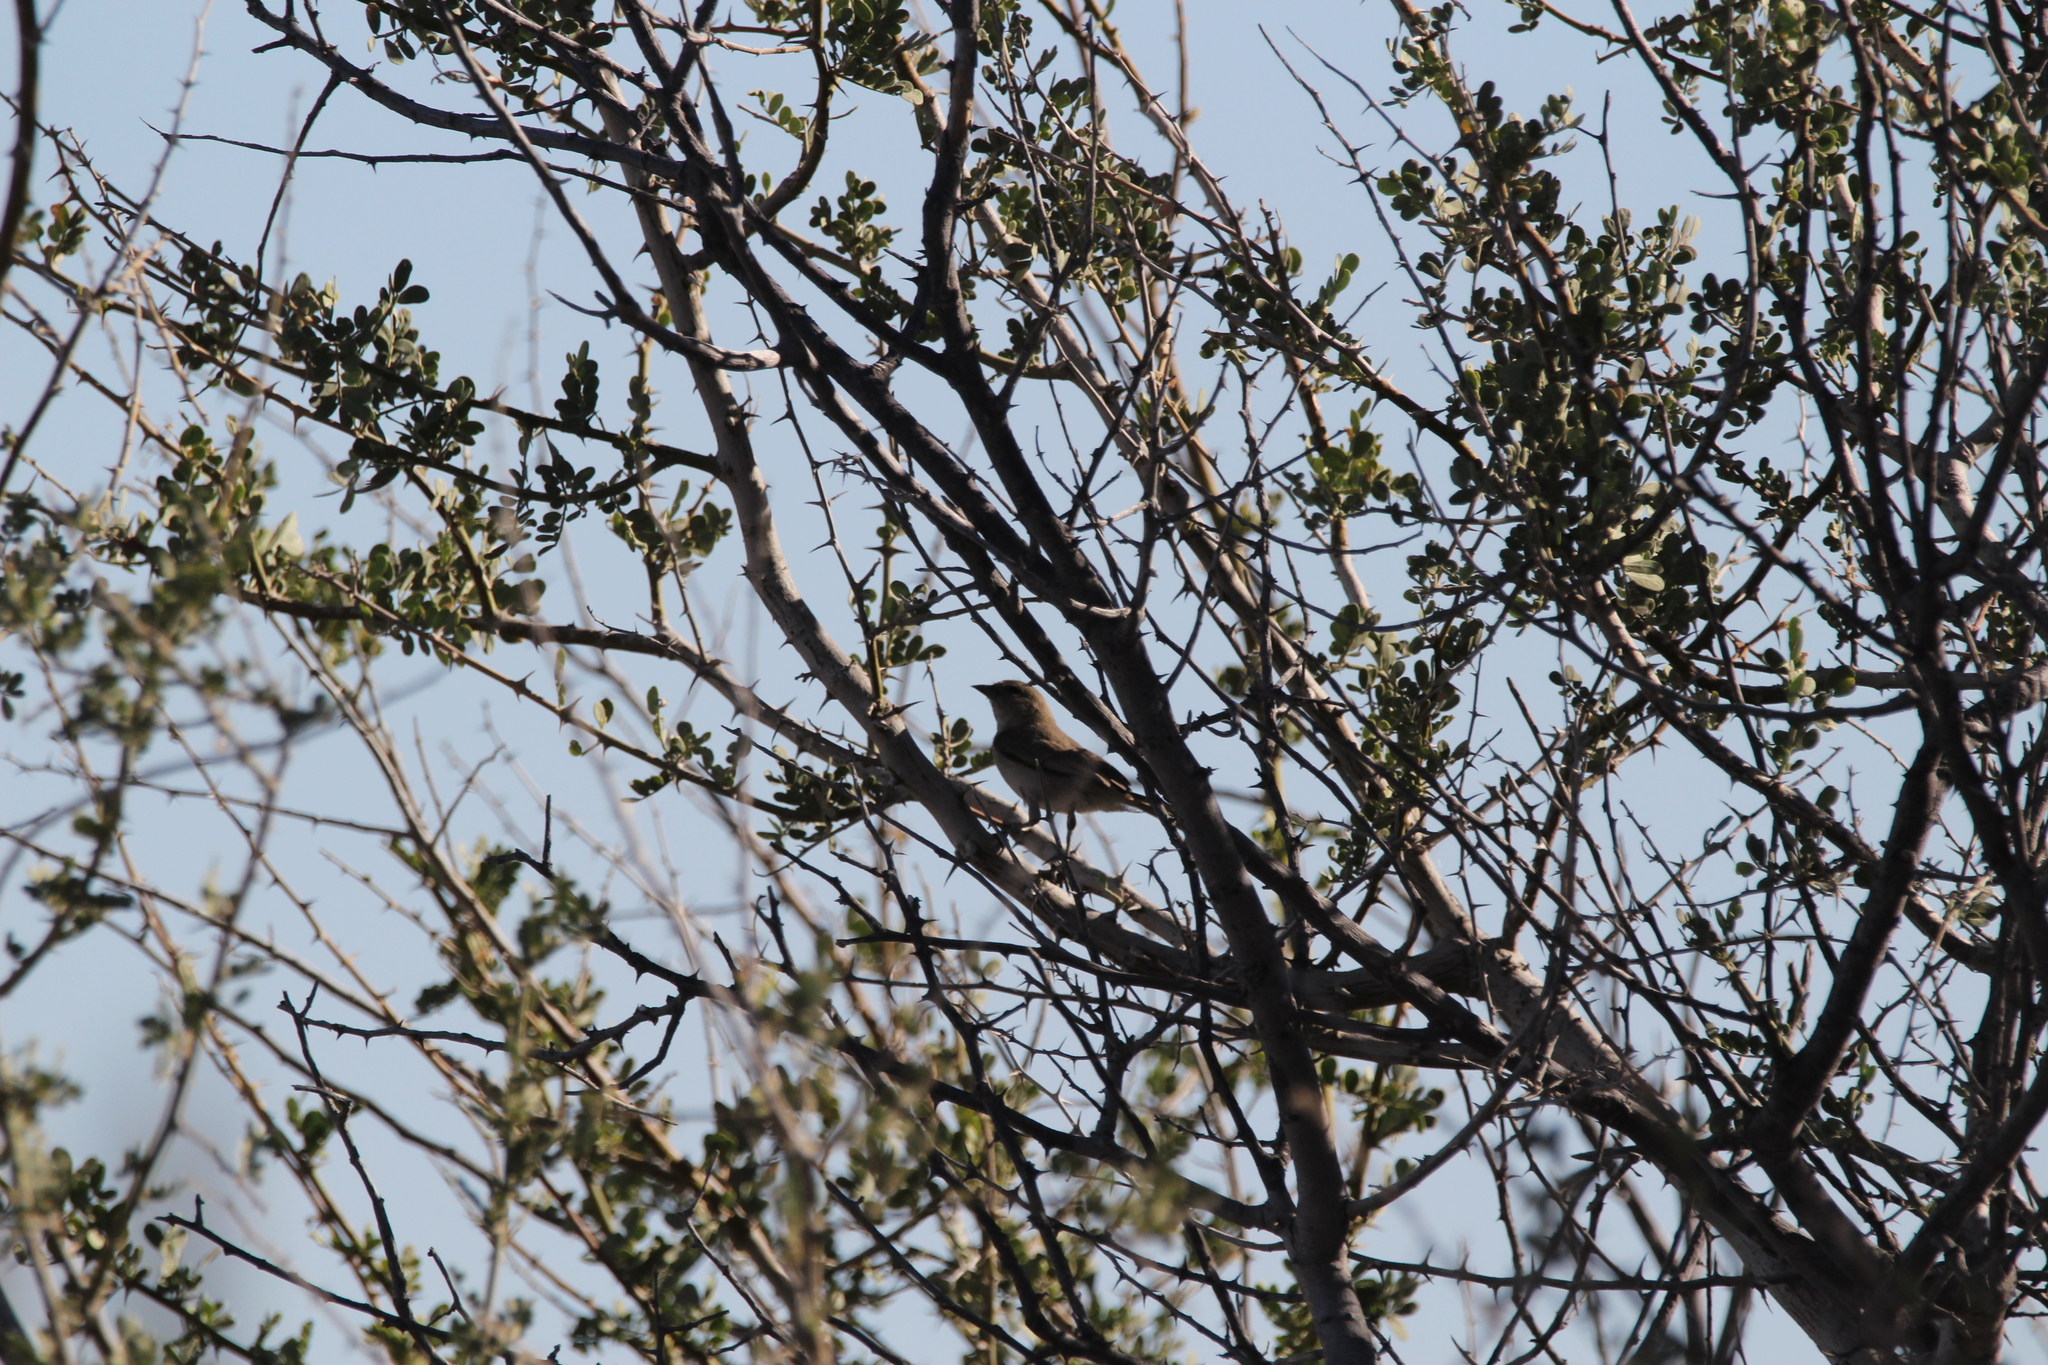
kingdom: Animalia
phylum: Chordata
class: Aves
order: Passeriformes
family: Remizidae
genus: Auriparus
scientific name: Auriparus flaviceps
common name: Verdin
